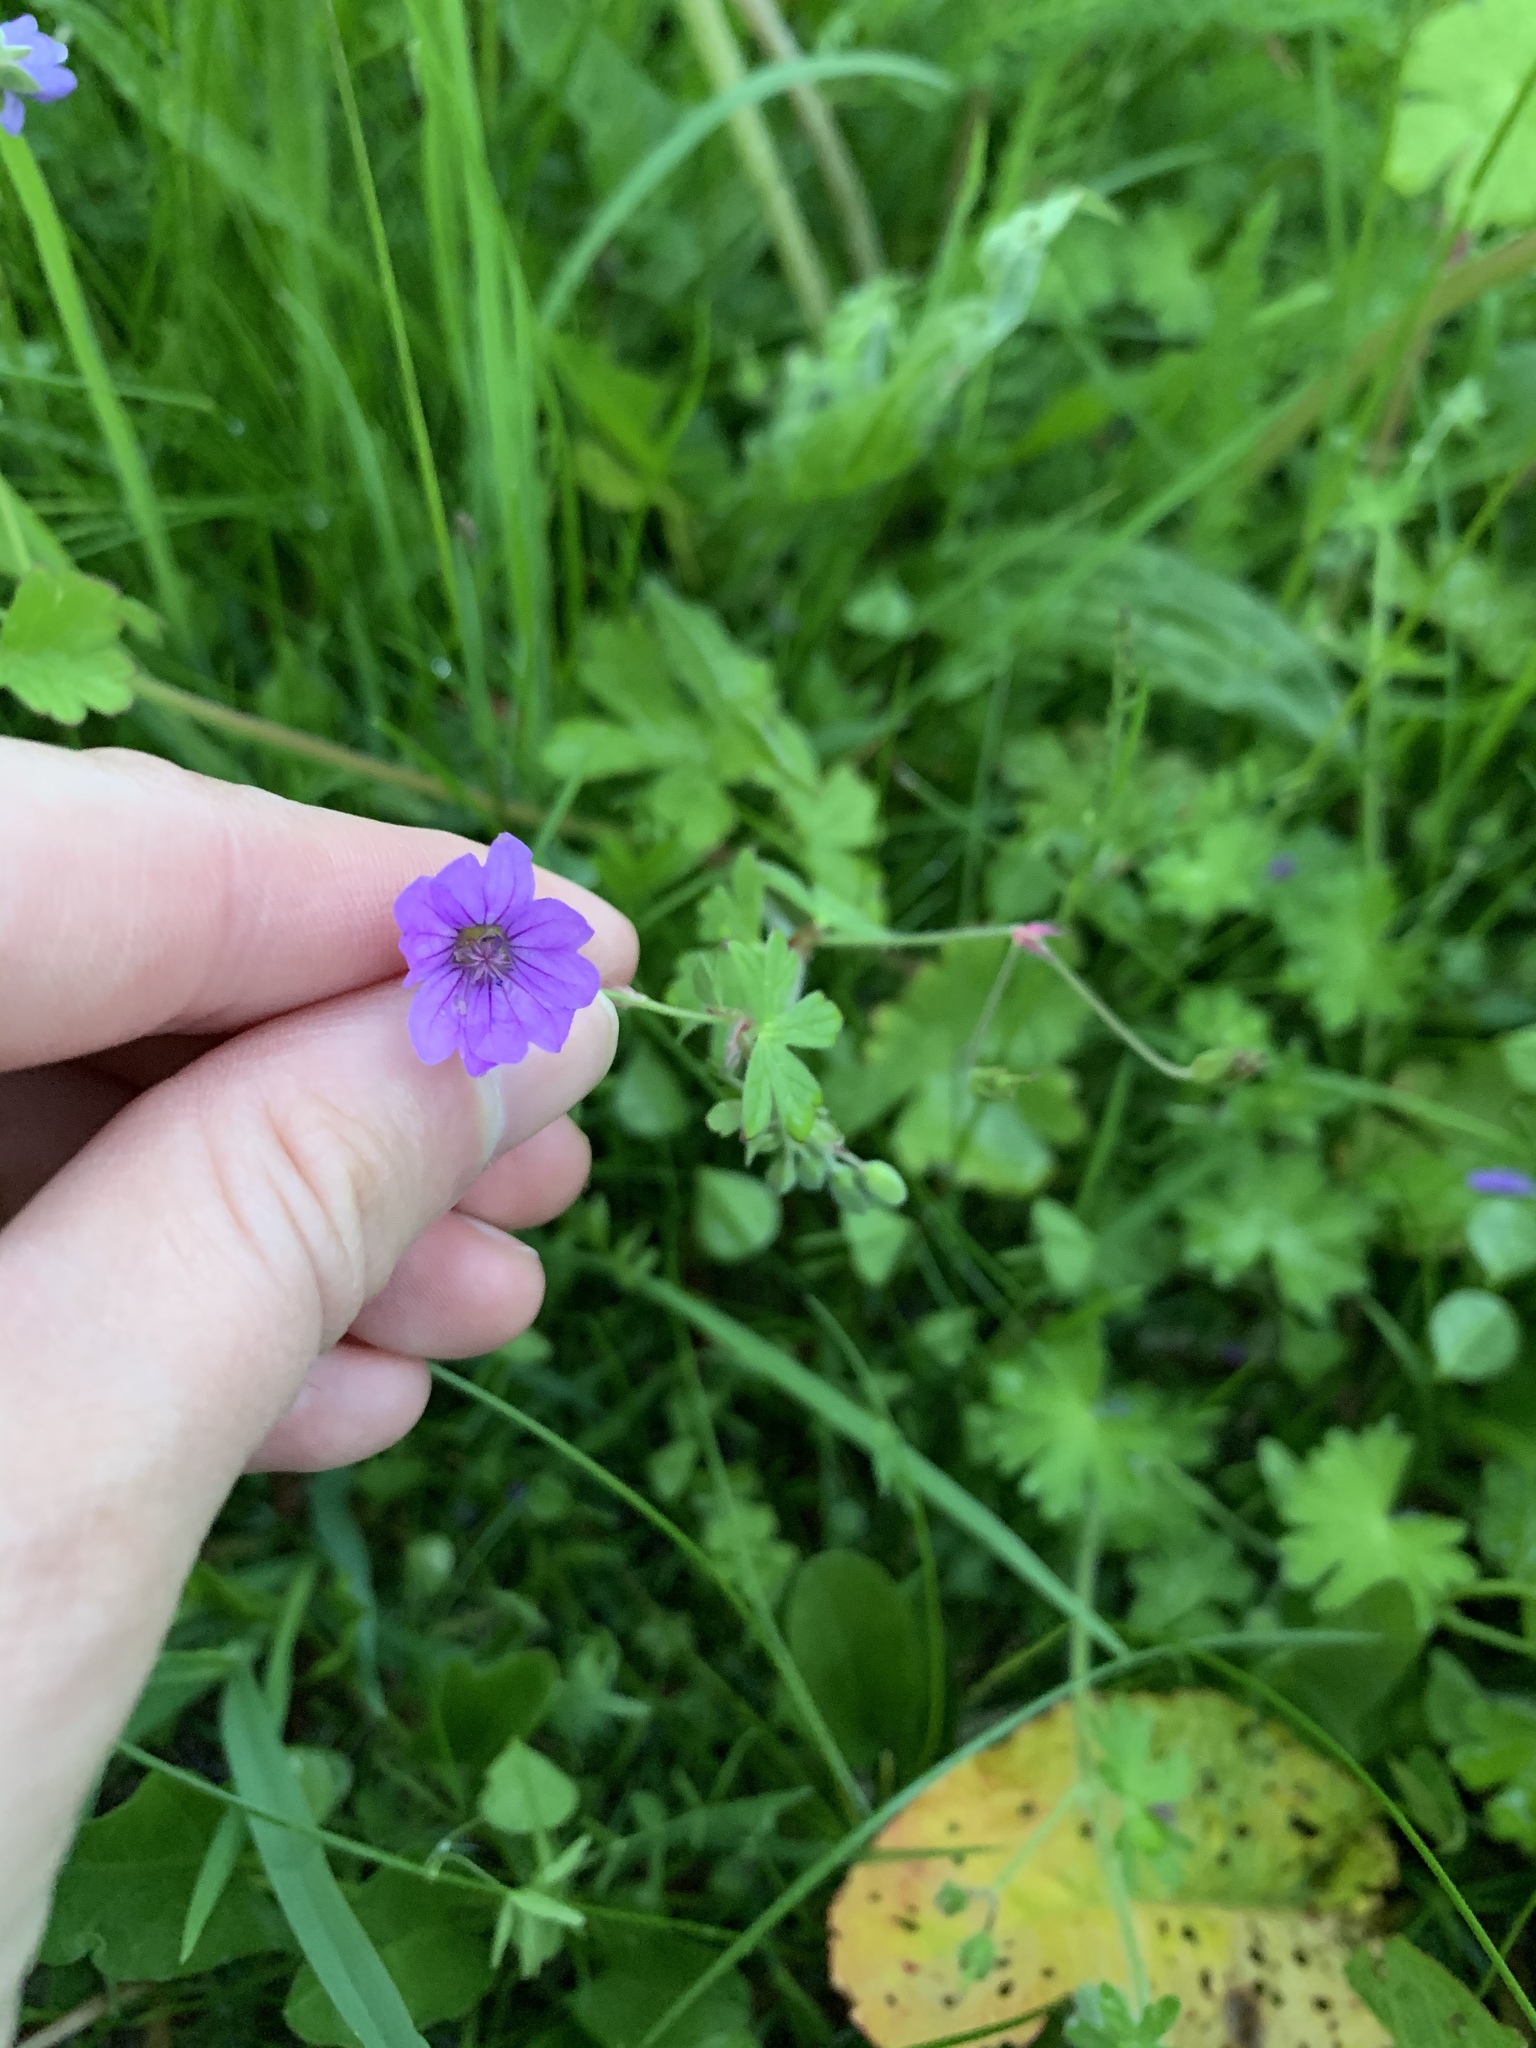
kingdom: Plantae
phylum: Tracheophyta
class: Magnoliopsida
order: Geraniales
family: Geraniaceae
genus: Geranium
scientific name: Geranium pyrenaicum
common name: Hedgerow crane's-bill
